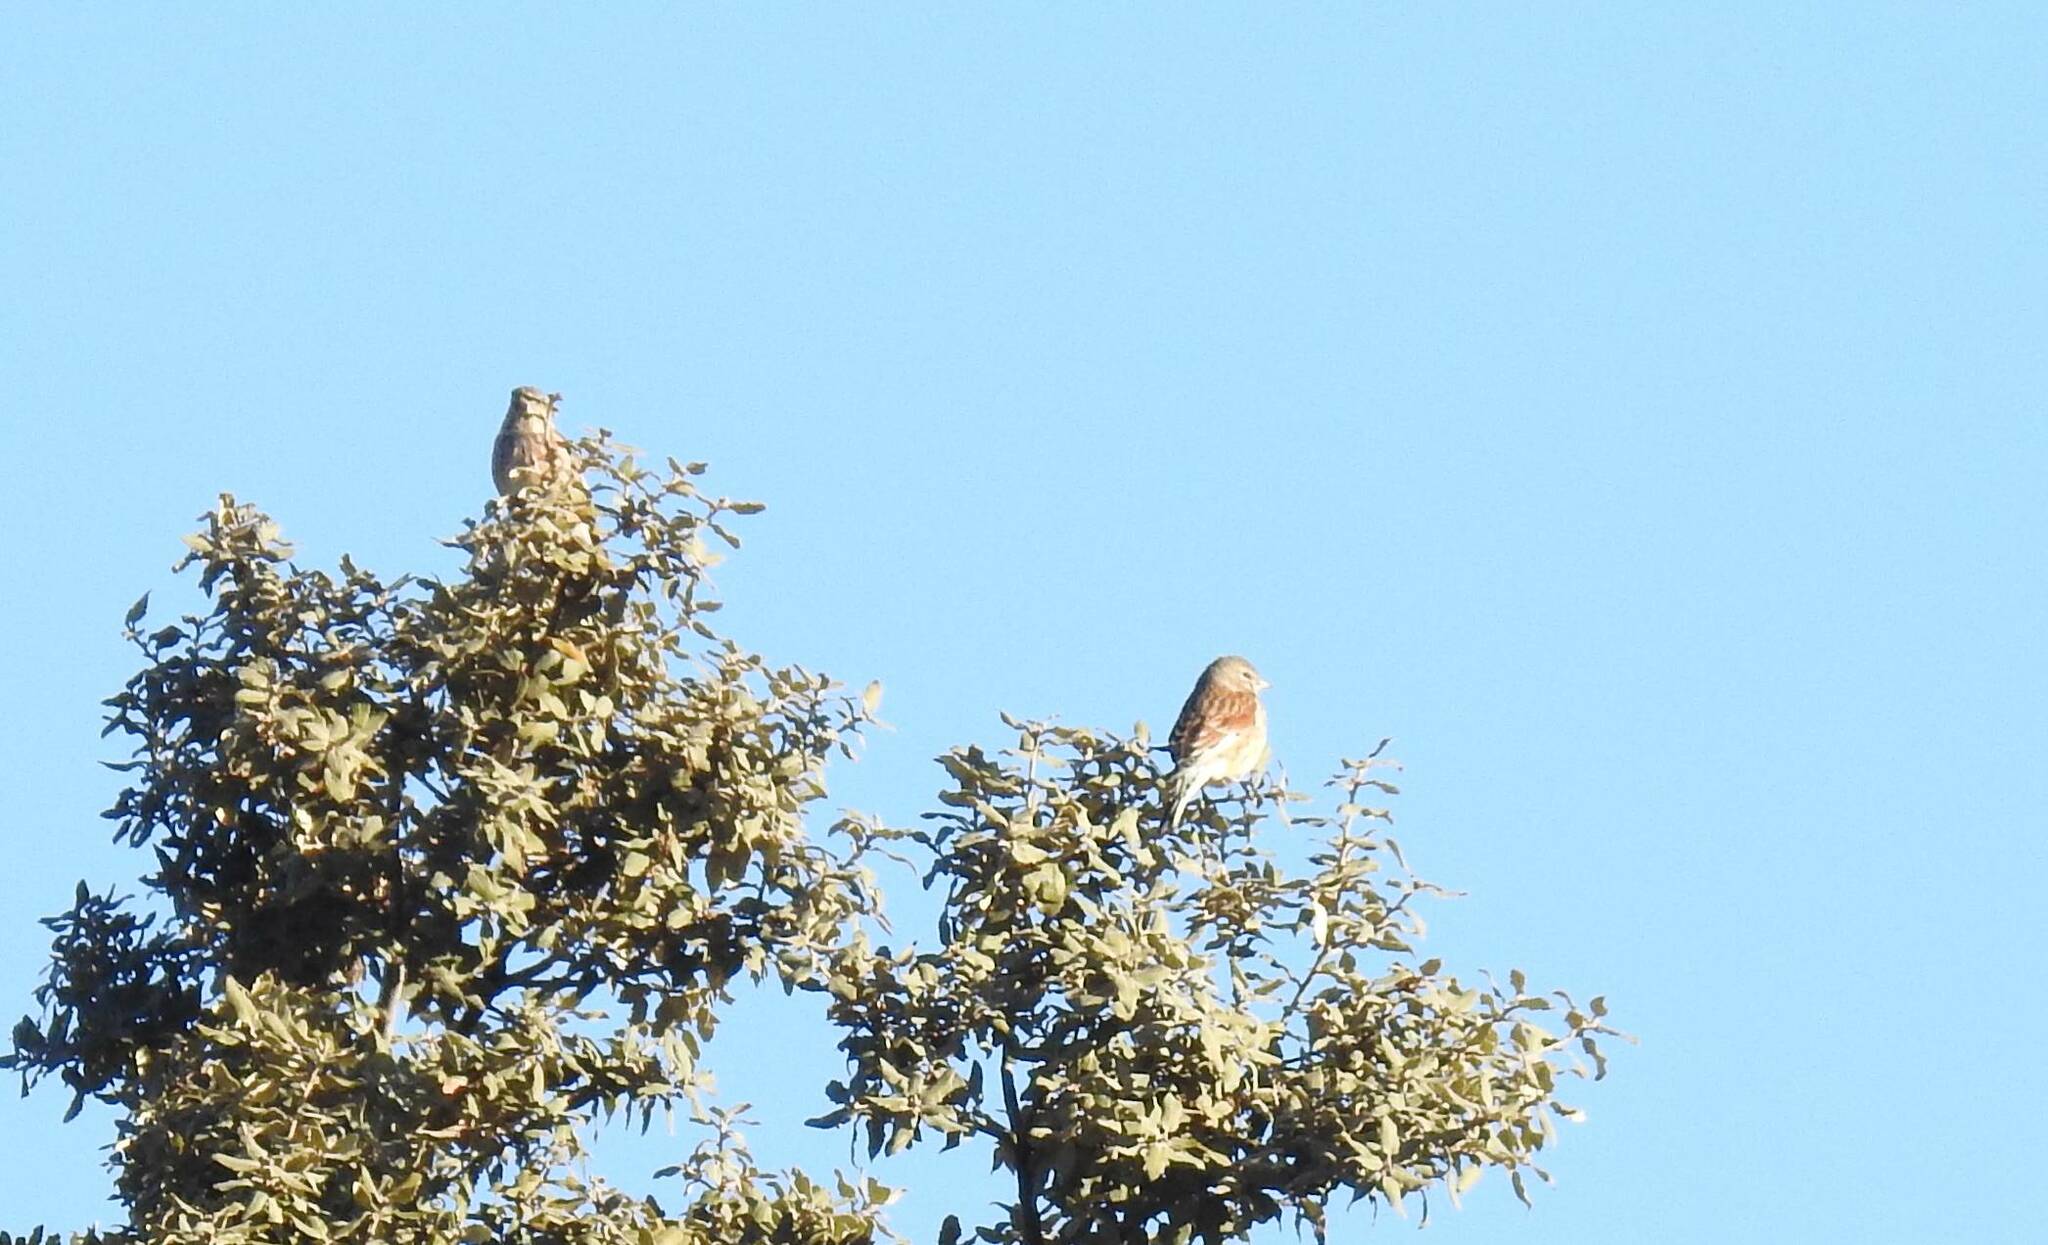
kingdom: Animalia
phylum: Chordata
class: Aves
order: Passeriformes
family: Fringillidae
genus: Linaria
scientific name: Linaria cannabina
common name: Common linnet
